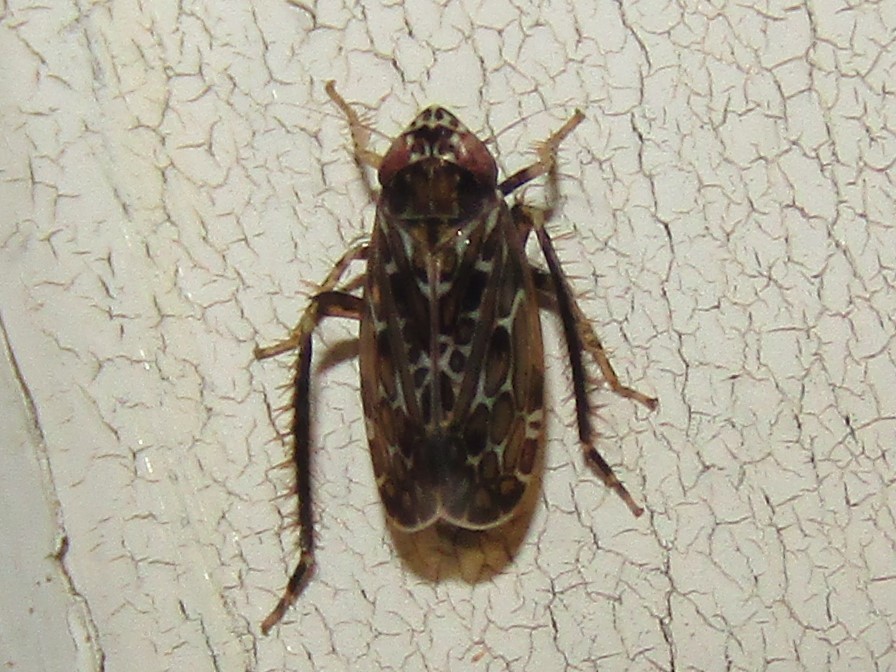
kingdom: Animalia
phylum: Arthropoda
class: Insecta
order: Hemiptera
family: Cicadellidae
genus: Polyamia
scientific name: Polyamia interrupta
